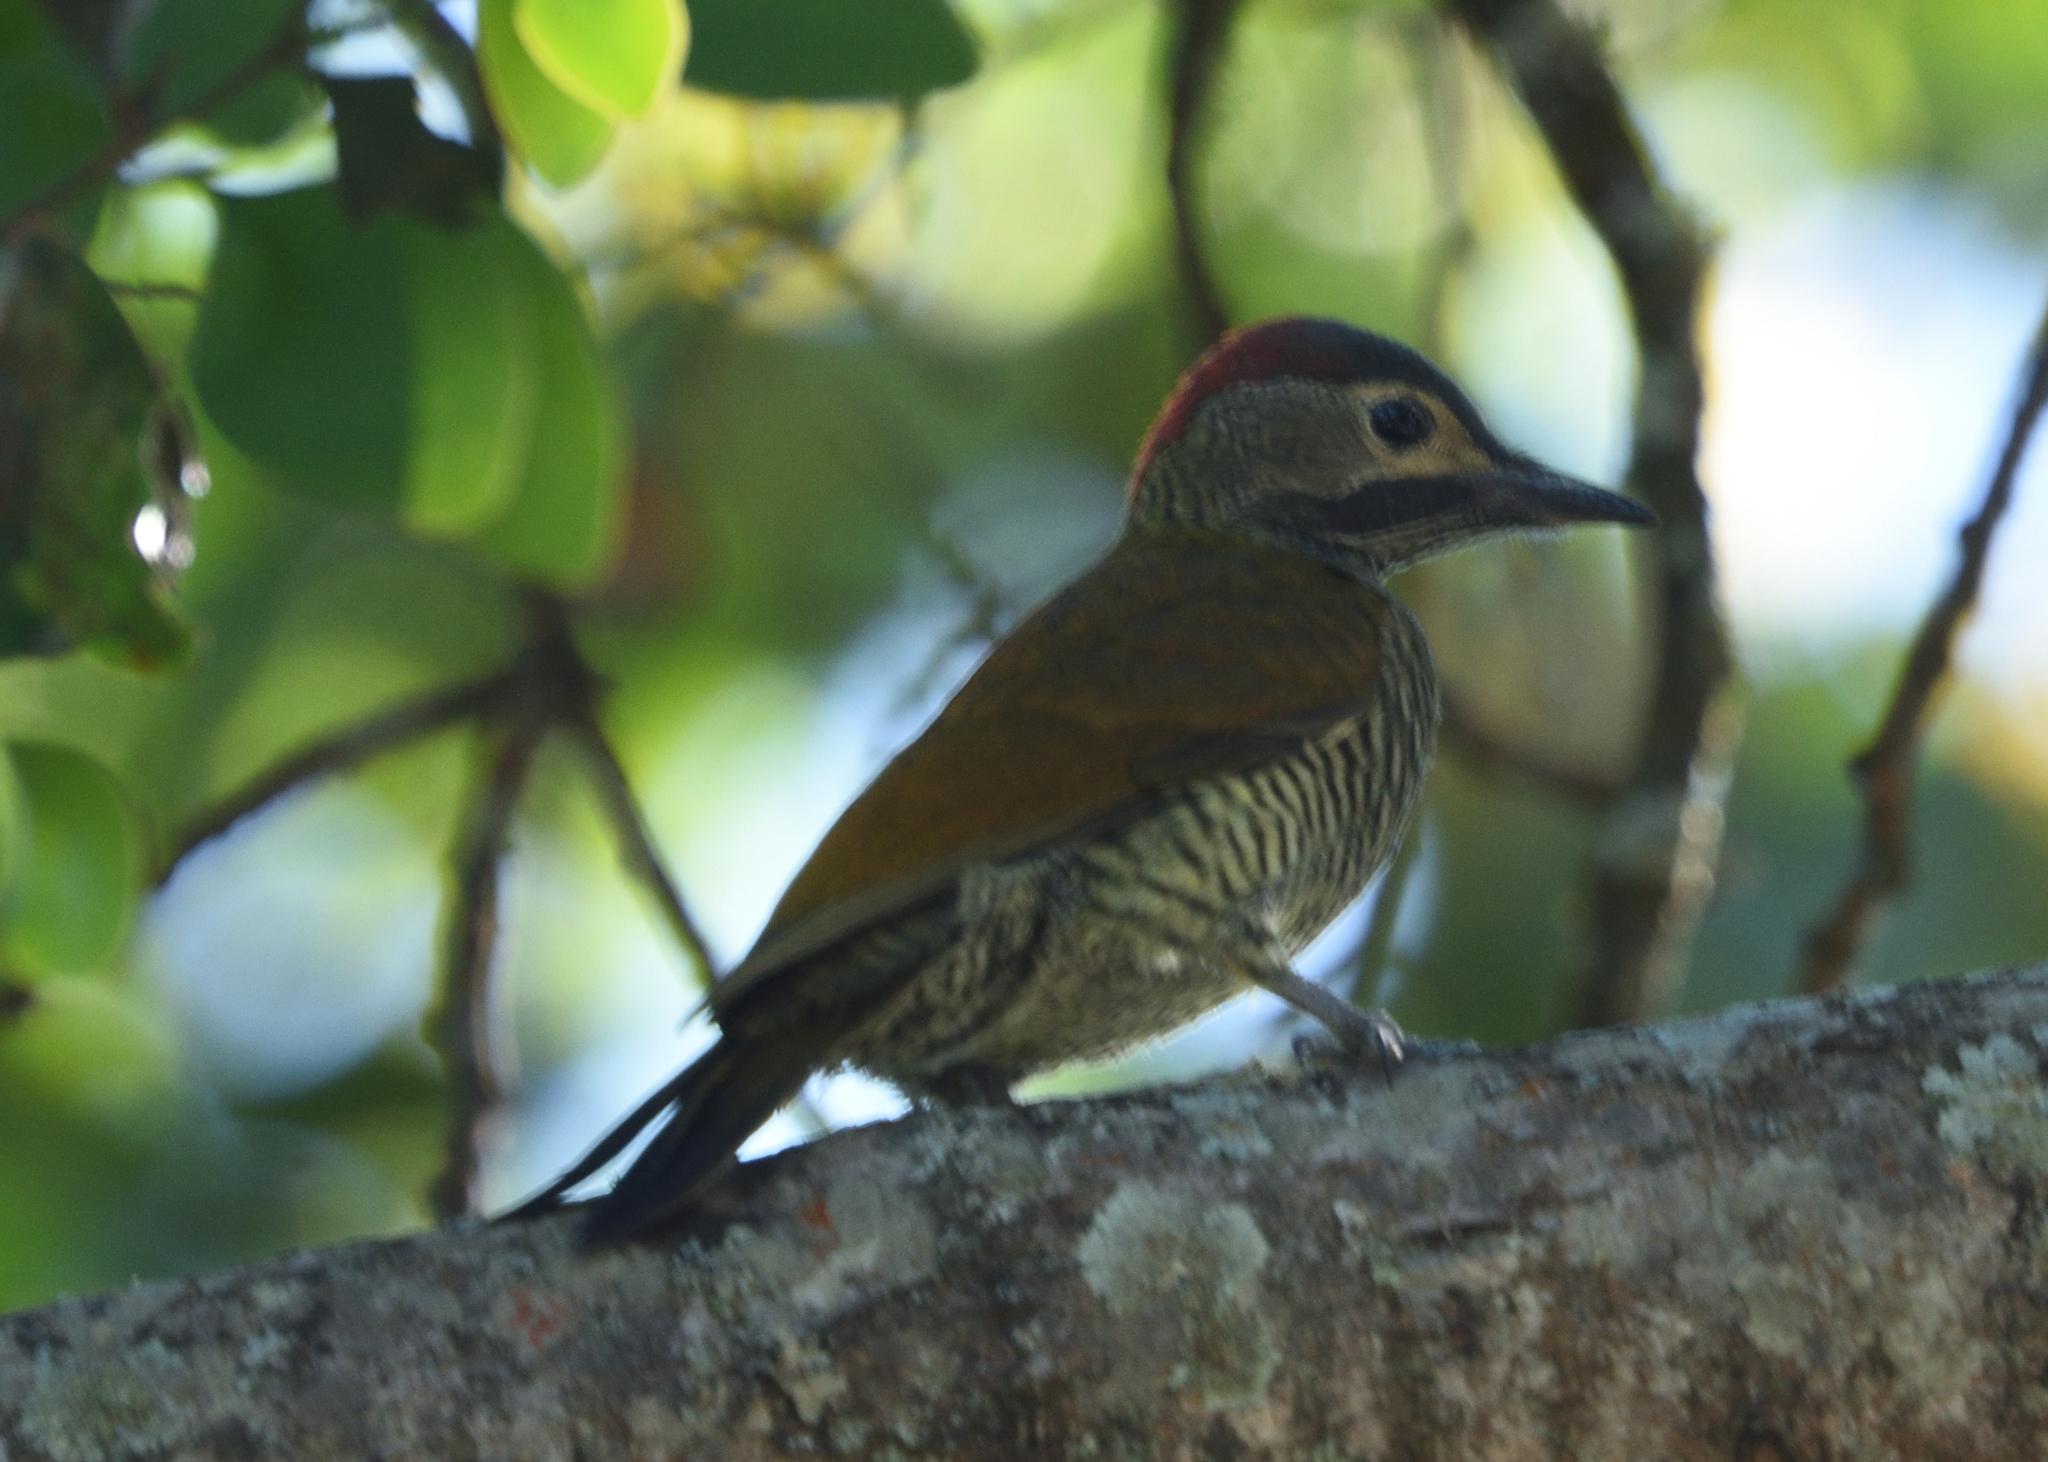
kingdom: Animalia
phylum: Chordata
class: Aves
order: Piciformes
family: Picidae
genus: Colaptes
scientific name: Colaptes rubiginosus
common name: Golden-olive woodpecker
